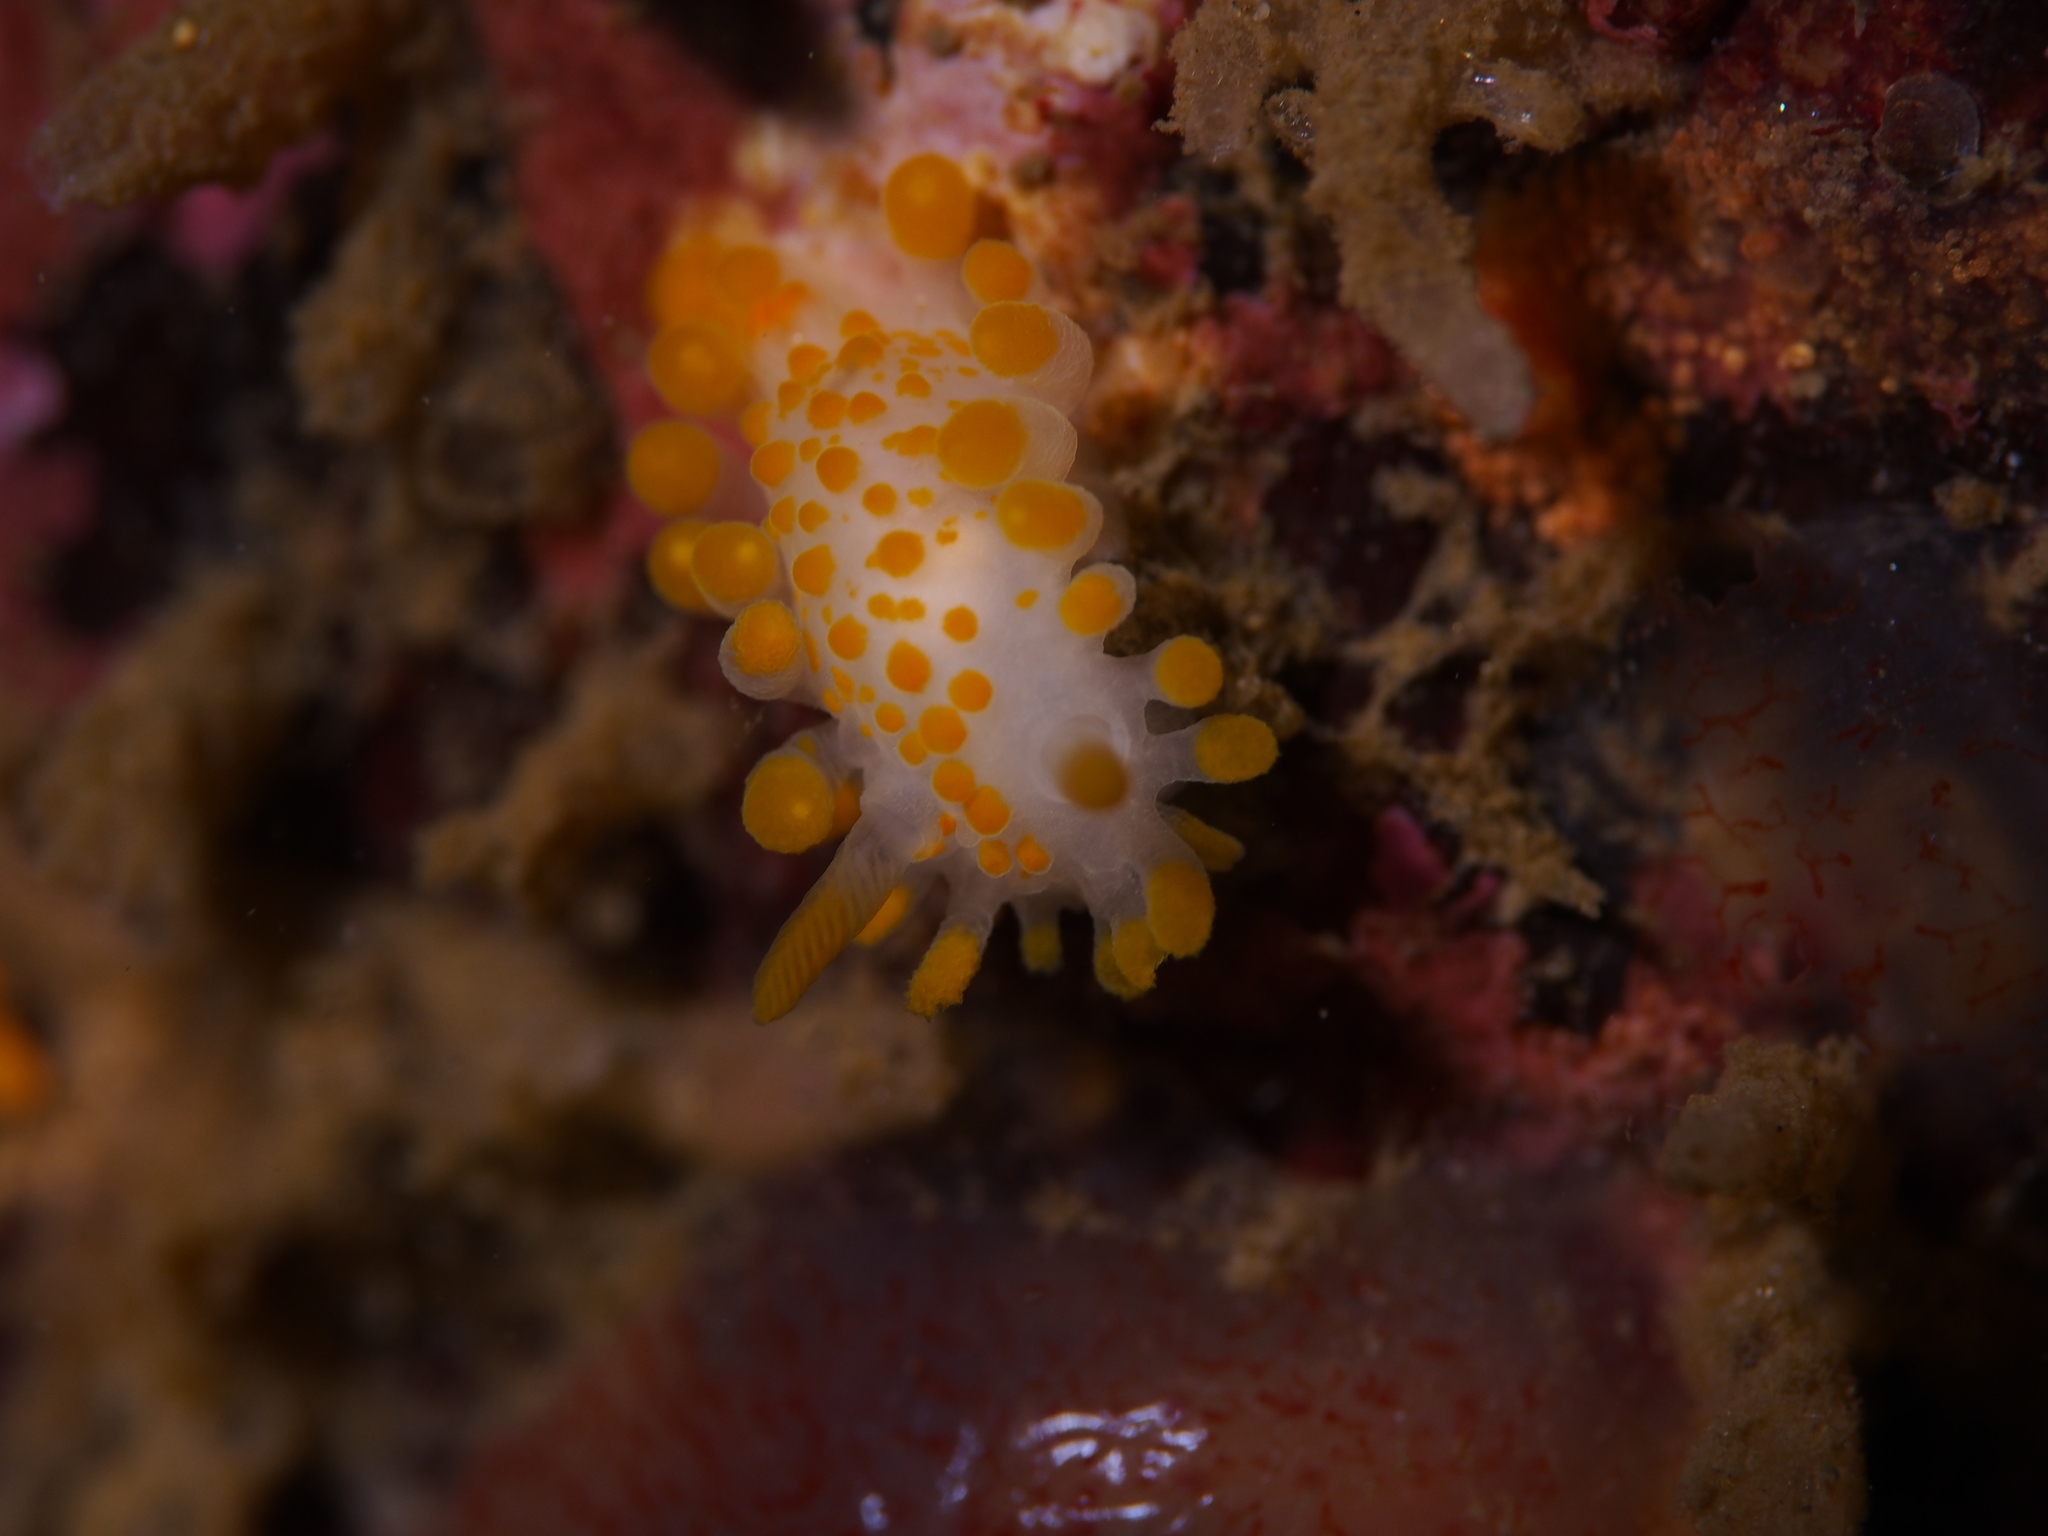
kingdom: Animalia
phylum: Mollusca
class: Gastropoda
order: Nudibranchia
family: Polyceridae
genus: Limacia
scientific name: Limacia clavigera
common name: Orange-clubbed sea slug
